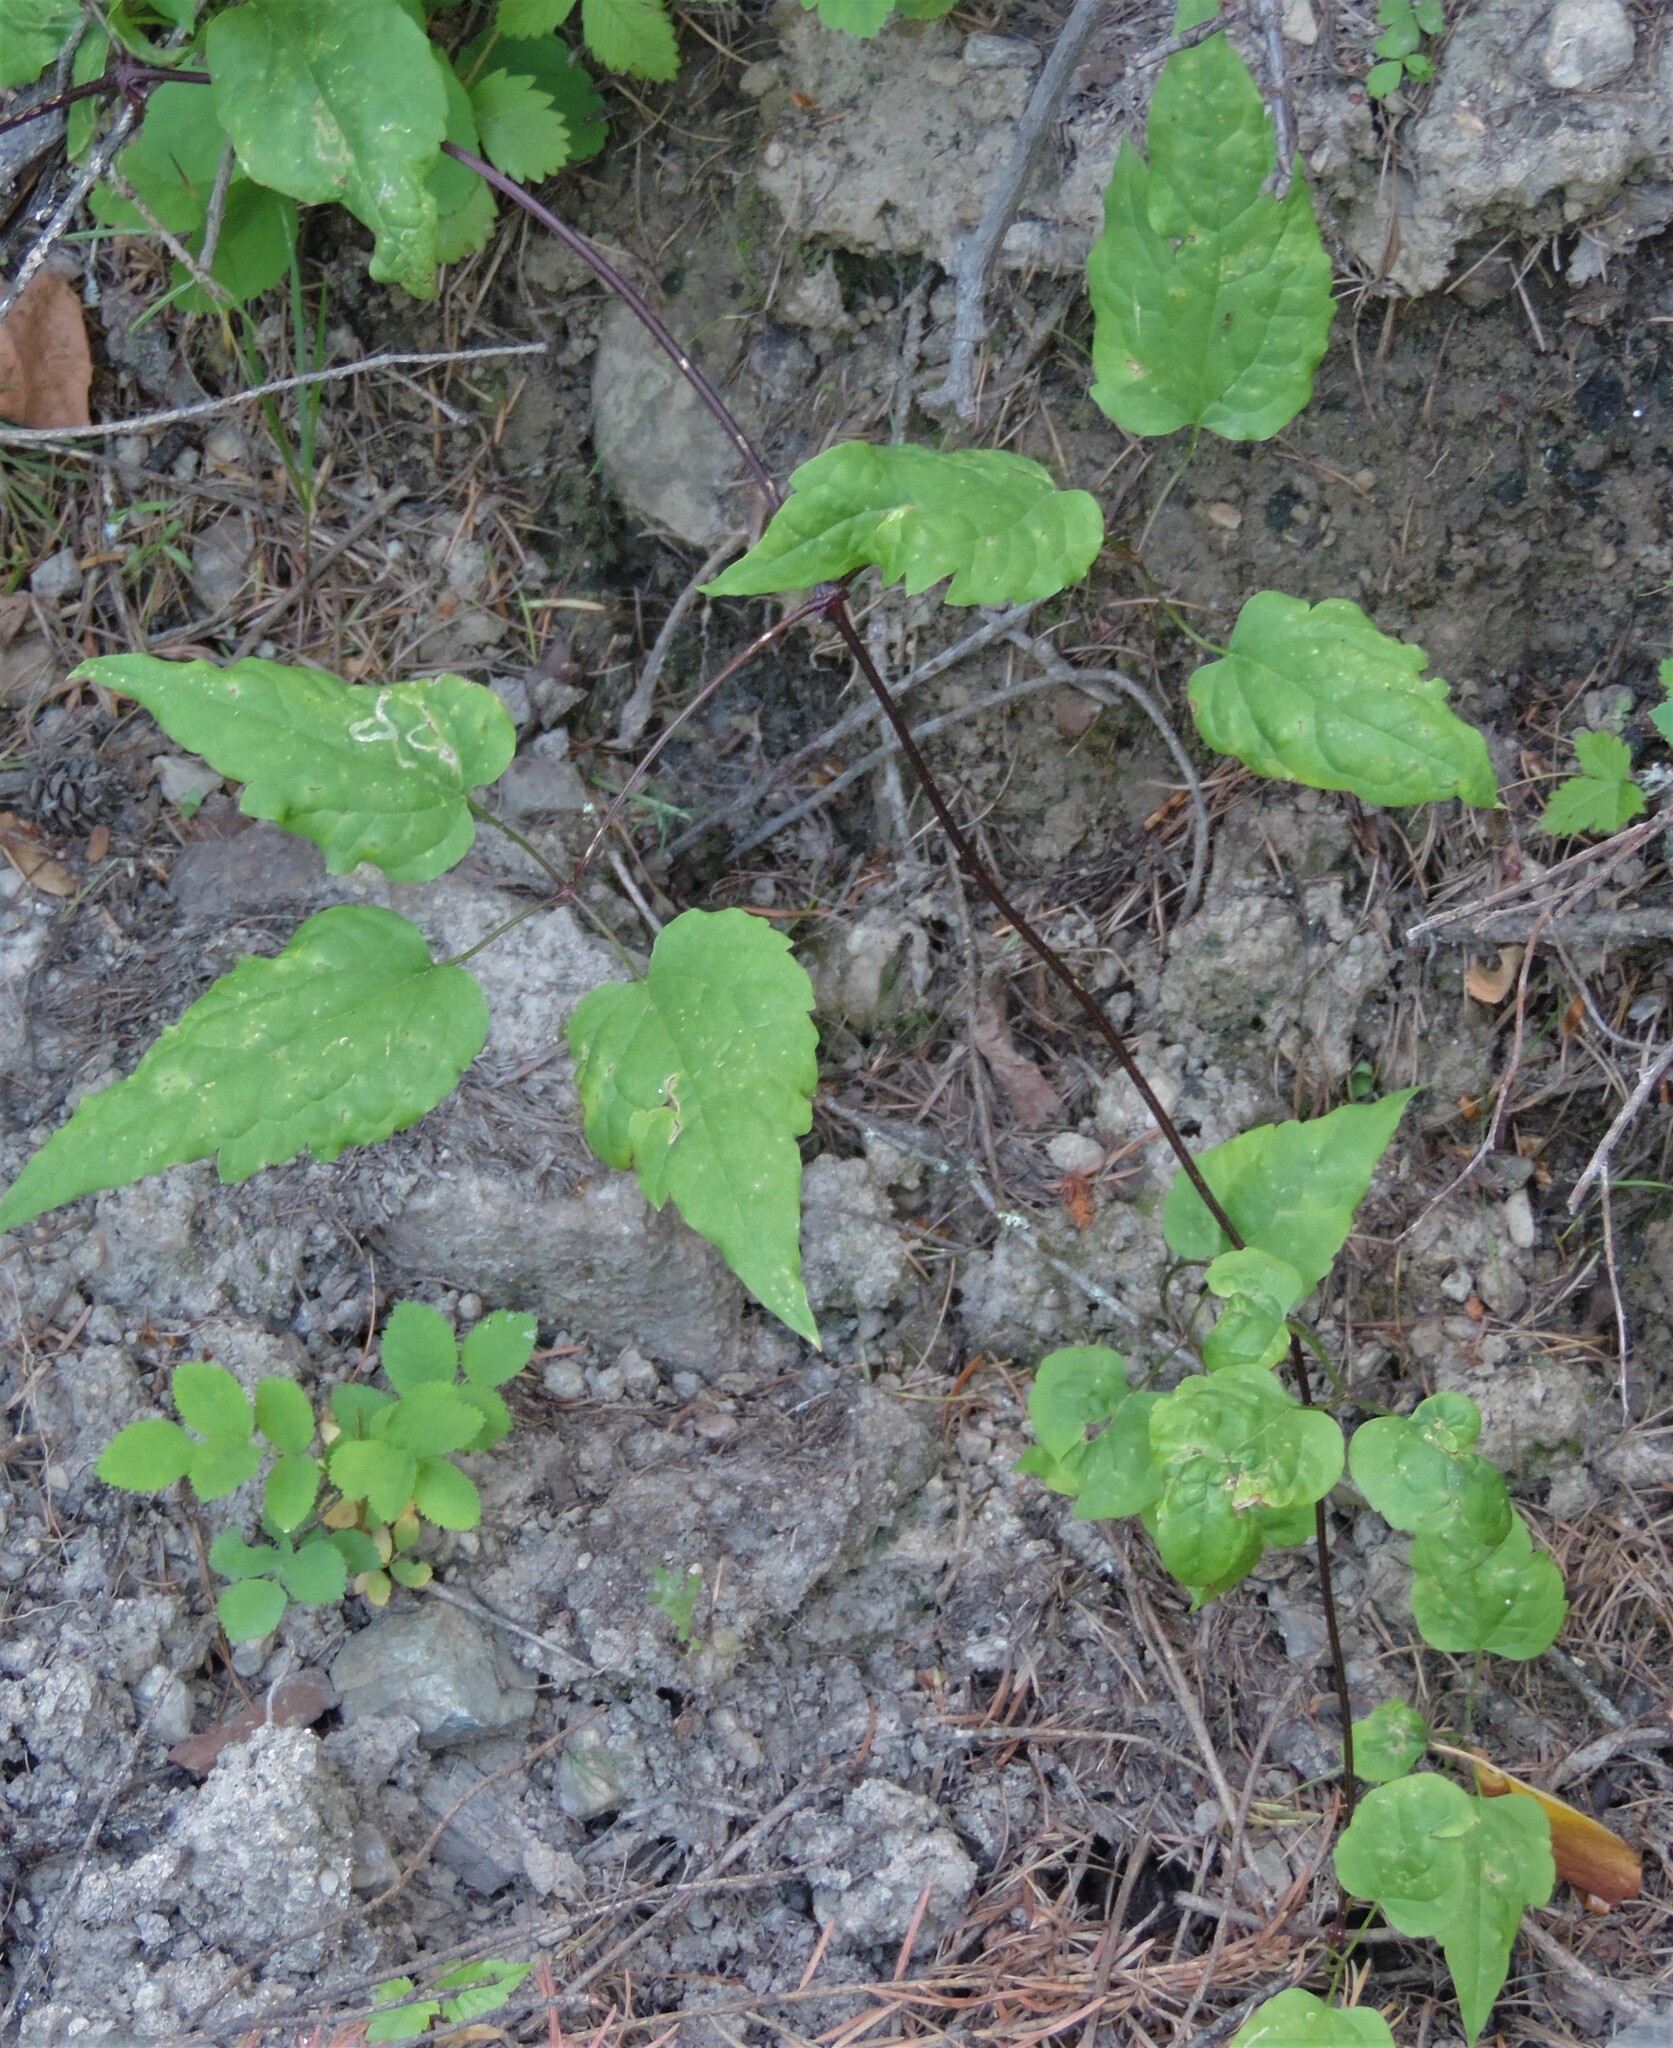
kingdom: Plantae
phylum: Tracheophyta
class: Magnoliopsida
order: Ranunculales
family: Ranunculaceae
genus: Clematis
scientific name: Clematis occidentalis
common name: Purple clematis
